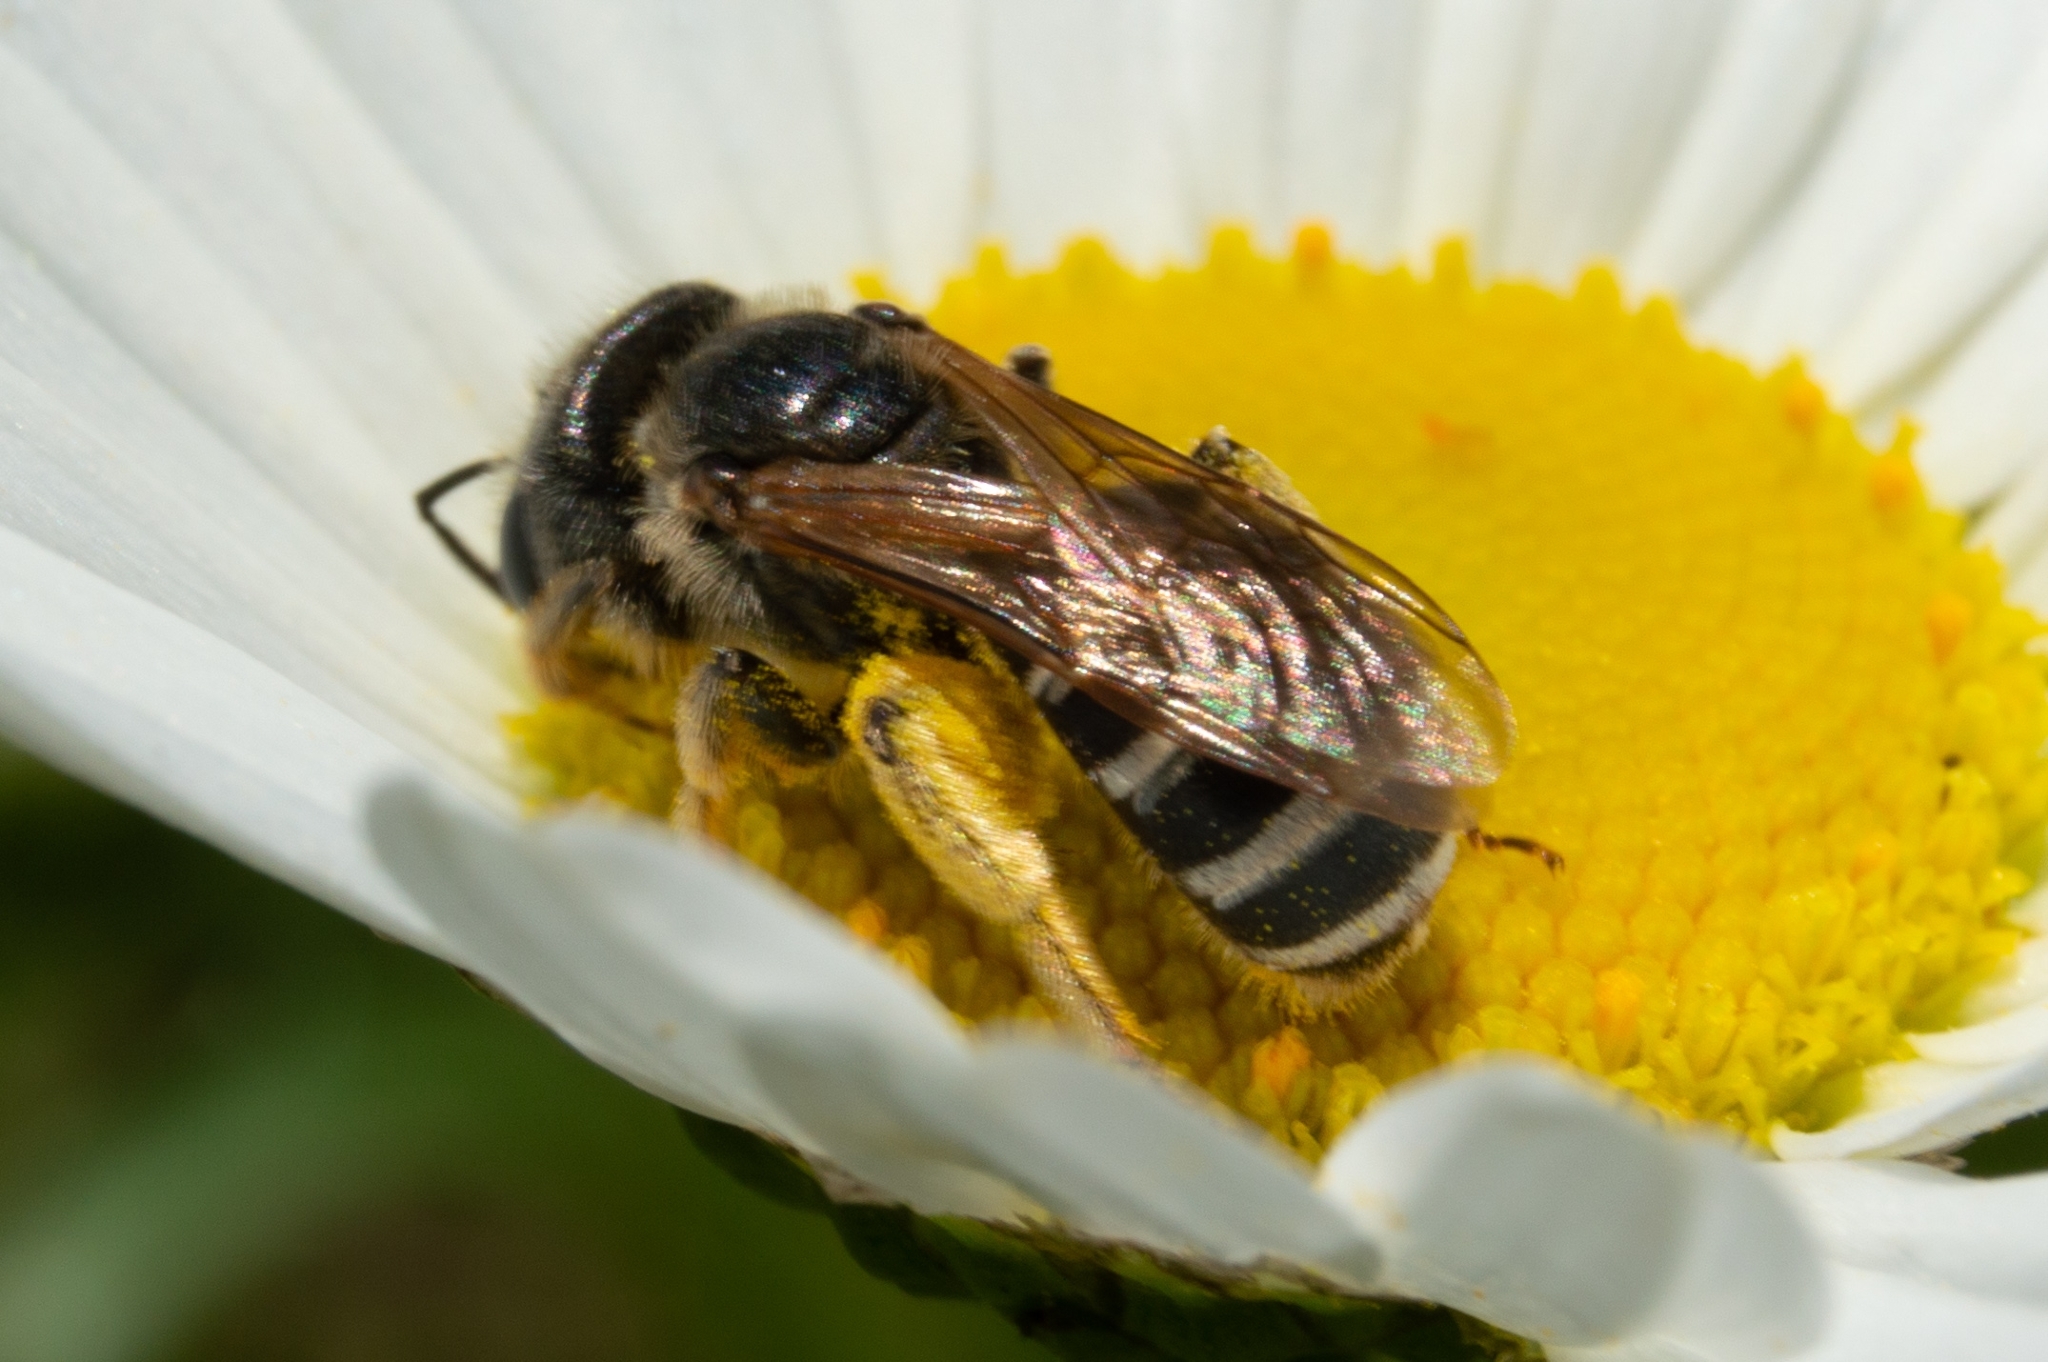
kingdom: Animalia
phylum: Arthropoda
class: Insecta
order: Hymenoptera
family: Halictidae
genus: Halictus
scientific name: Halictus ligatus
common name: Ligated furrow bee
